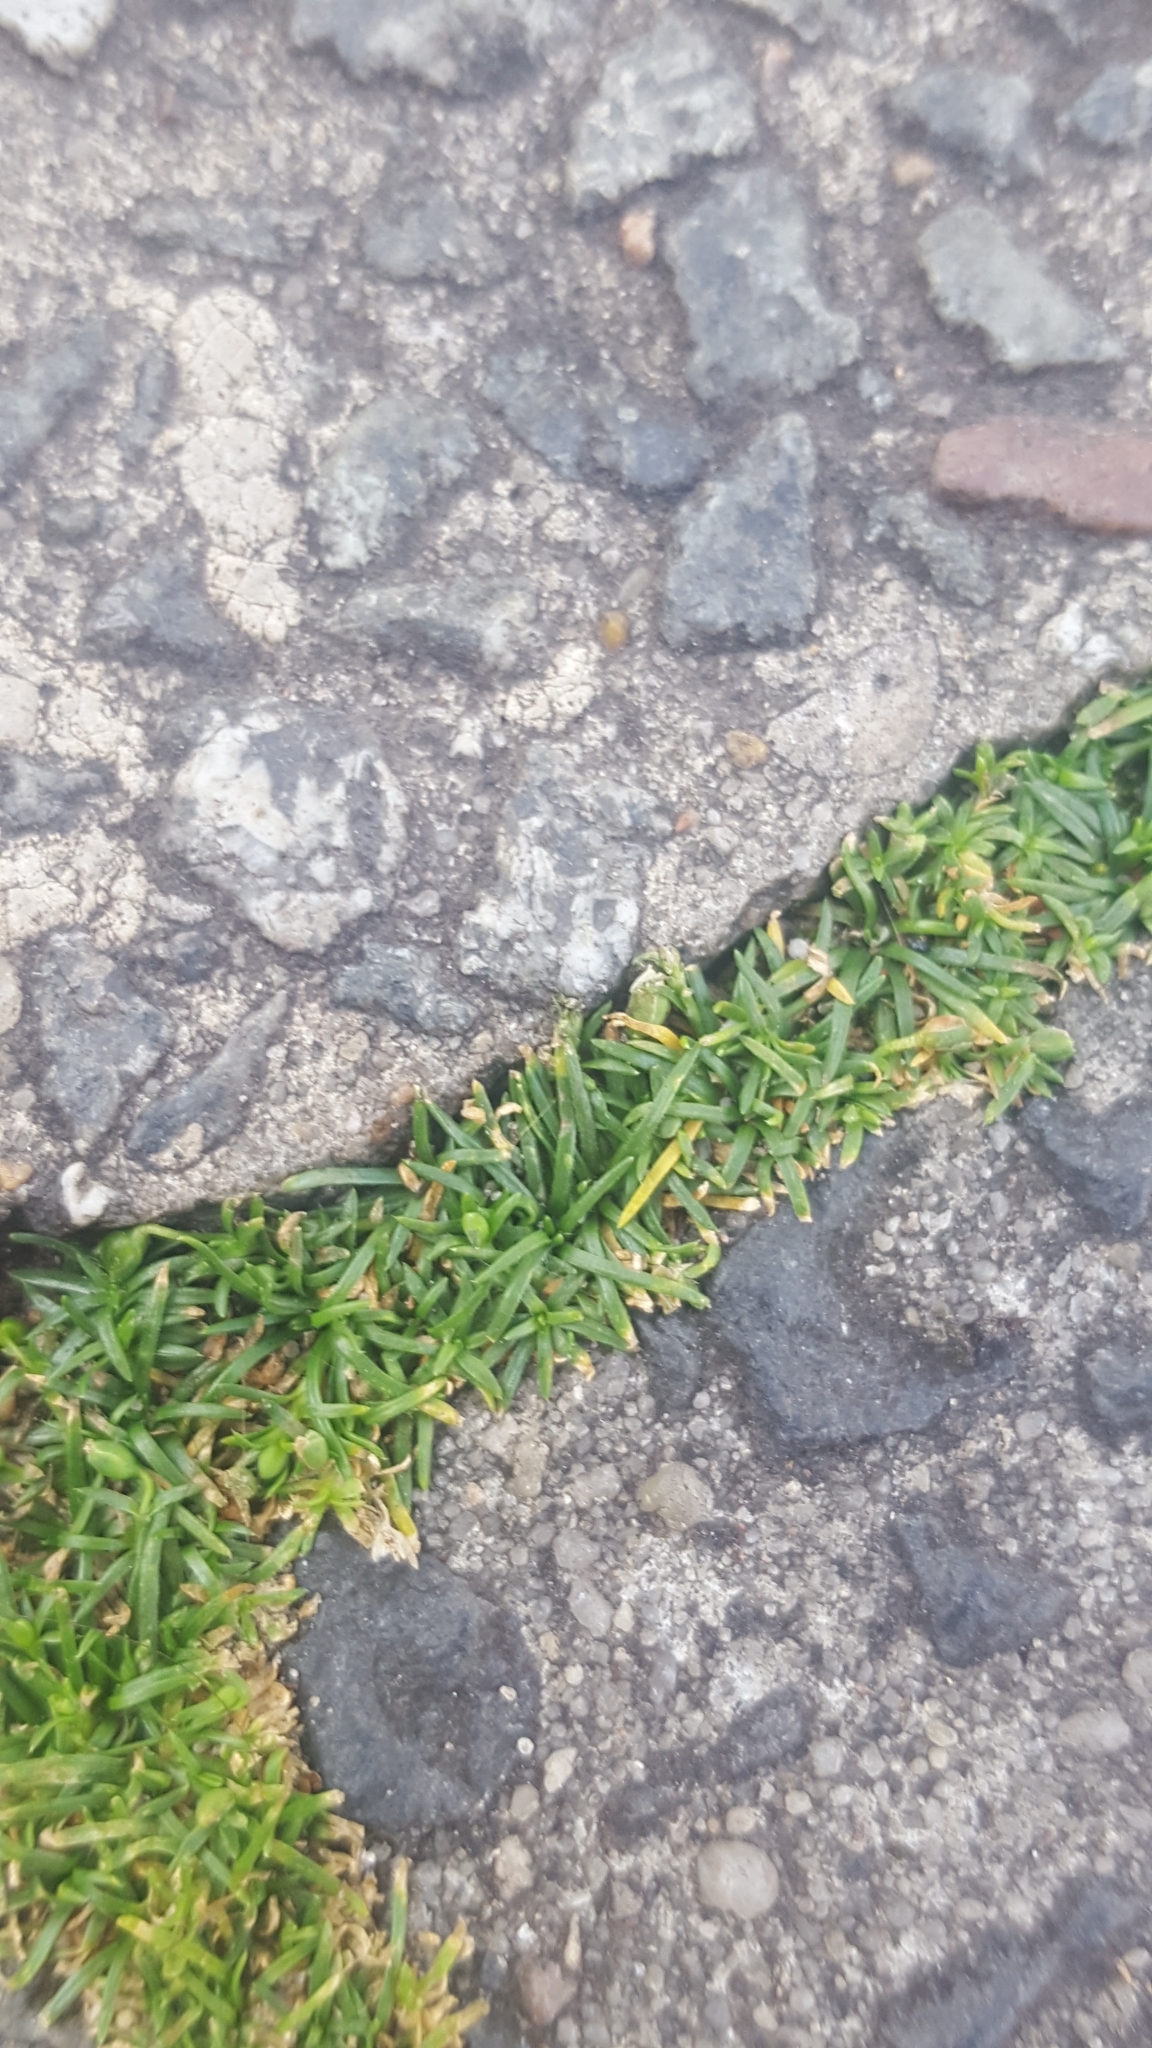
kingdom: Plantae
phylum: Tracheophyta
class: Magnoliopsida
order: Caryophyllales
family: Caryophyllaceae
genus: Sagina
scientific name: Sagina procumbens
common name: Procumbent pearlwort
